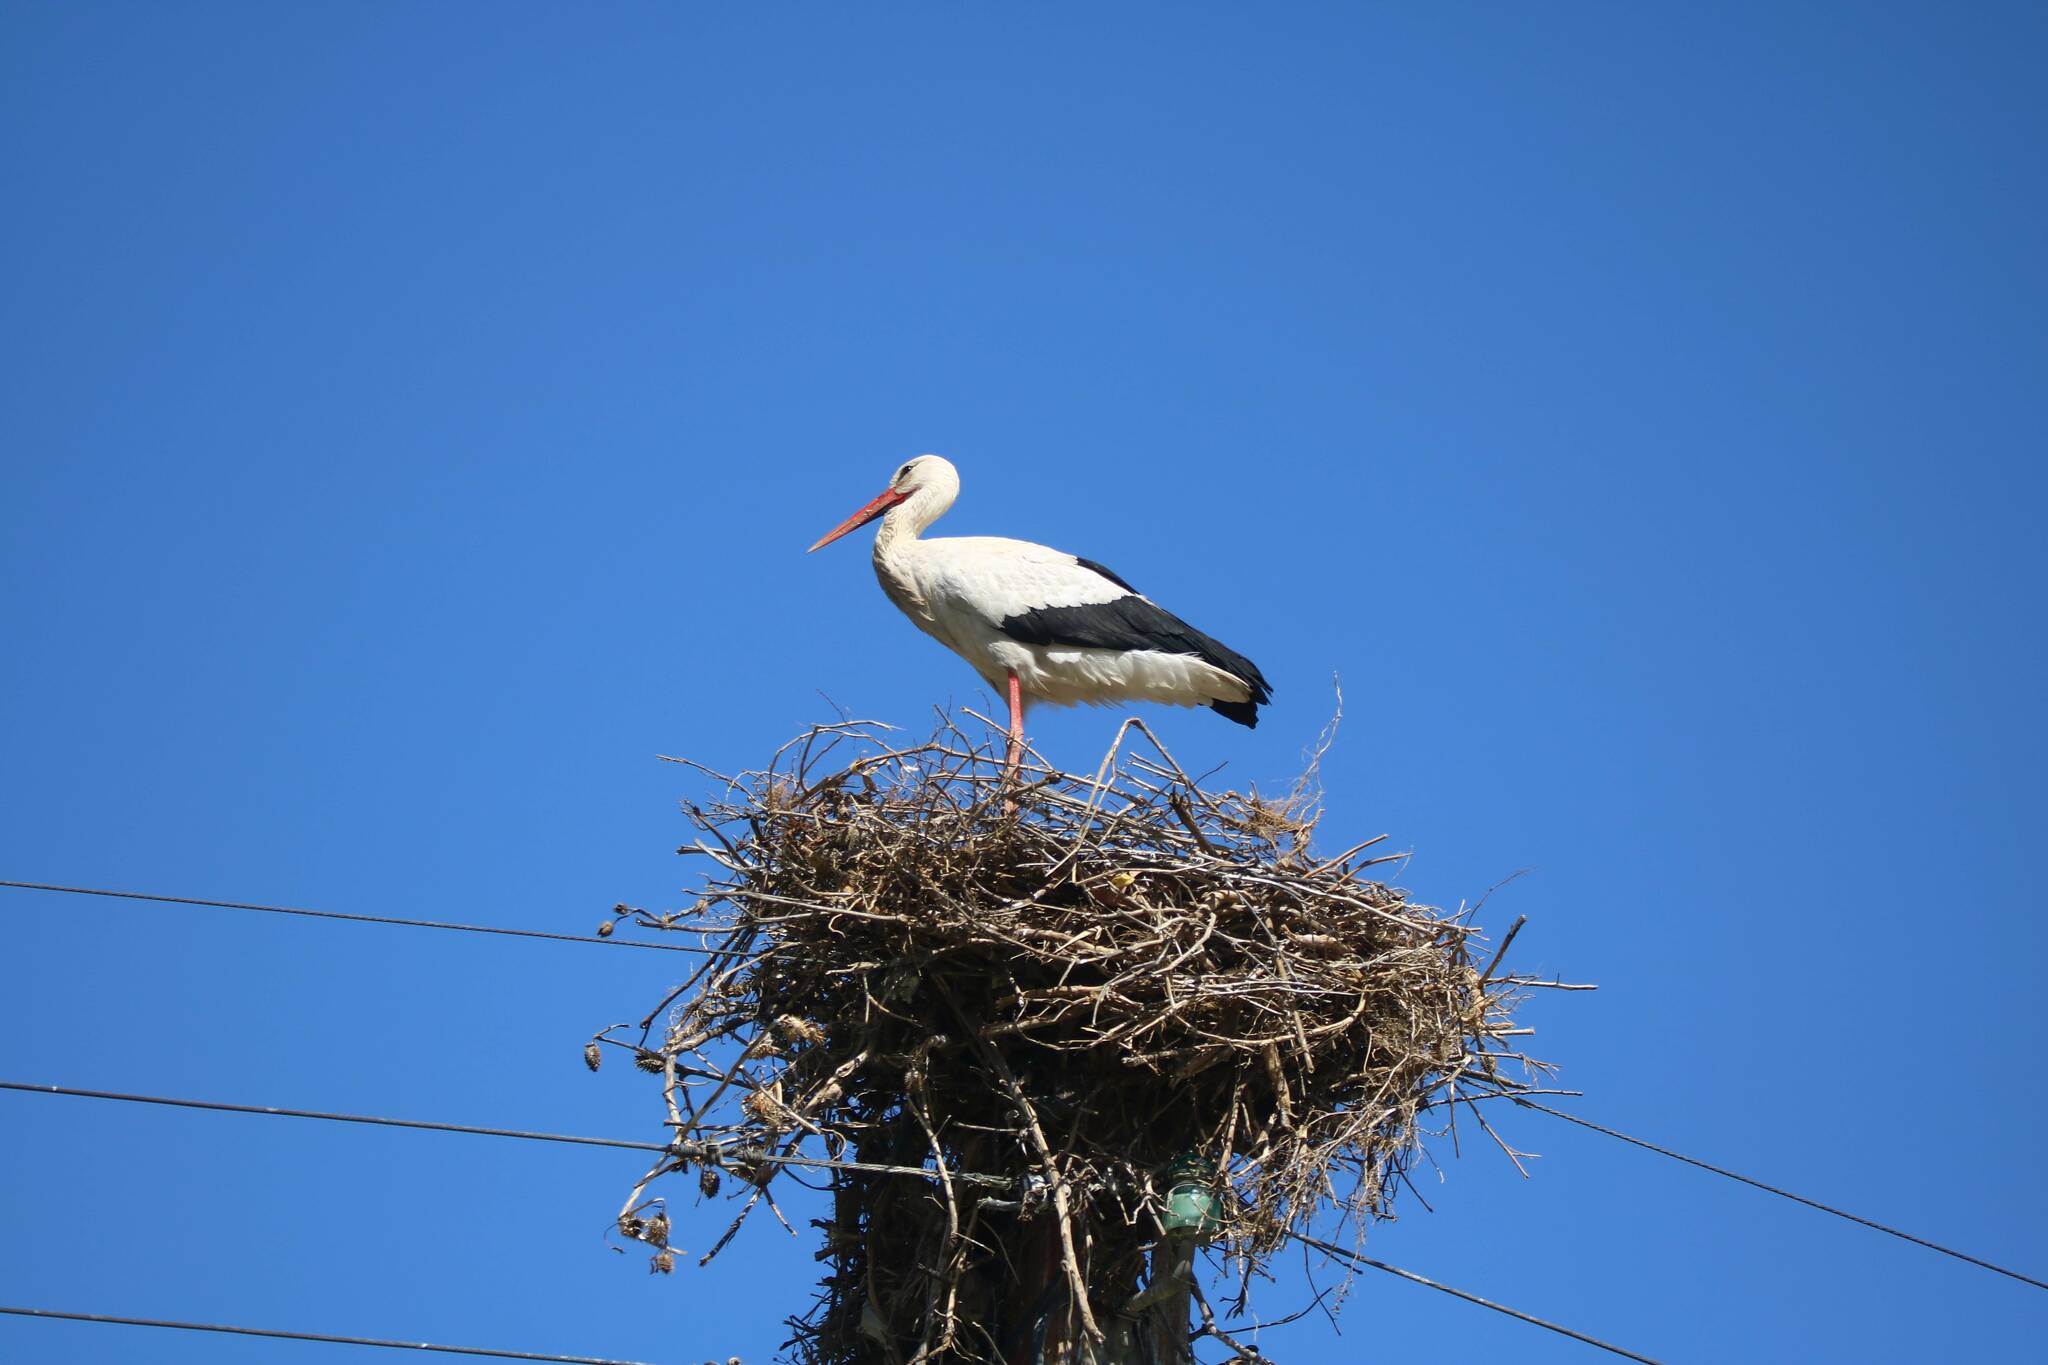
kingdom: Animalia
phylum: Chordata
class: Aves
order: Ciconiiformes
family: Ciconiidae
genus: Ciconia
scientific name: Ciconia ciconia
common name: White stork
